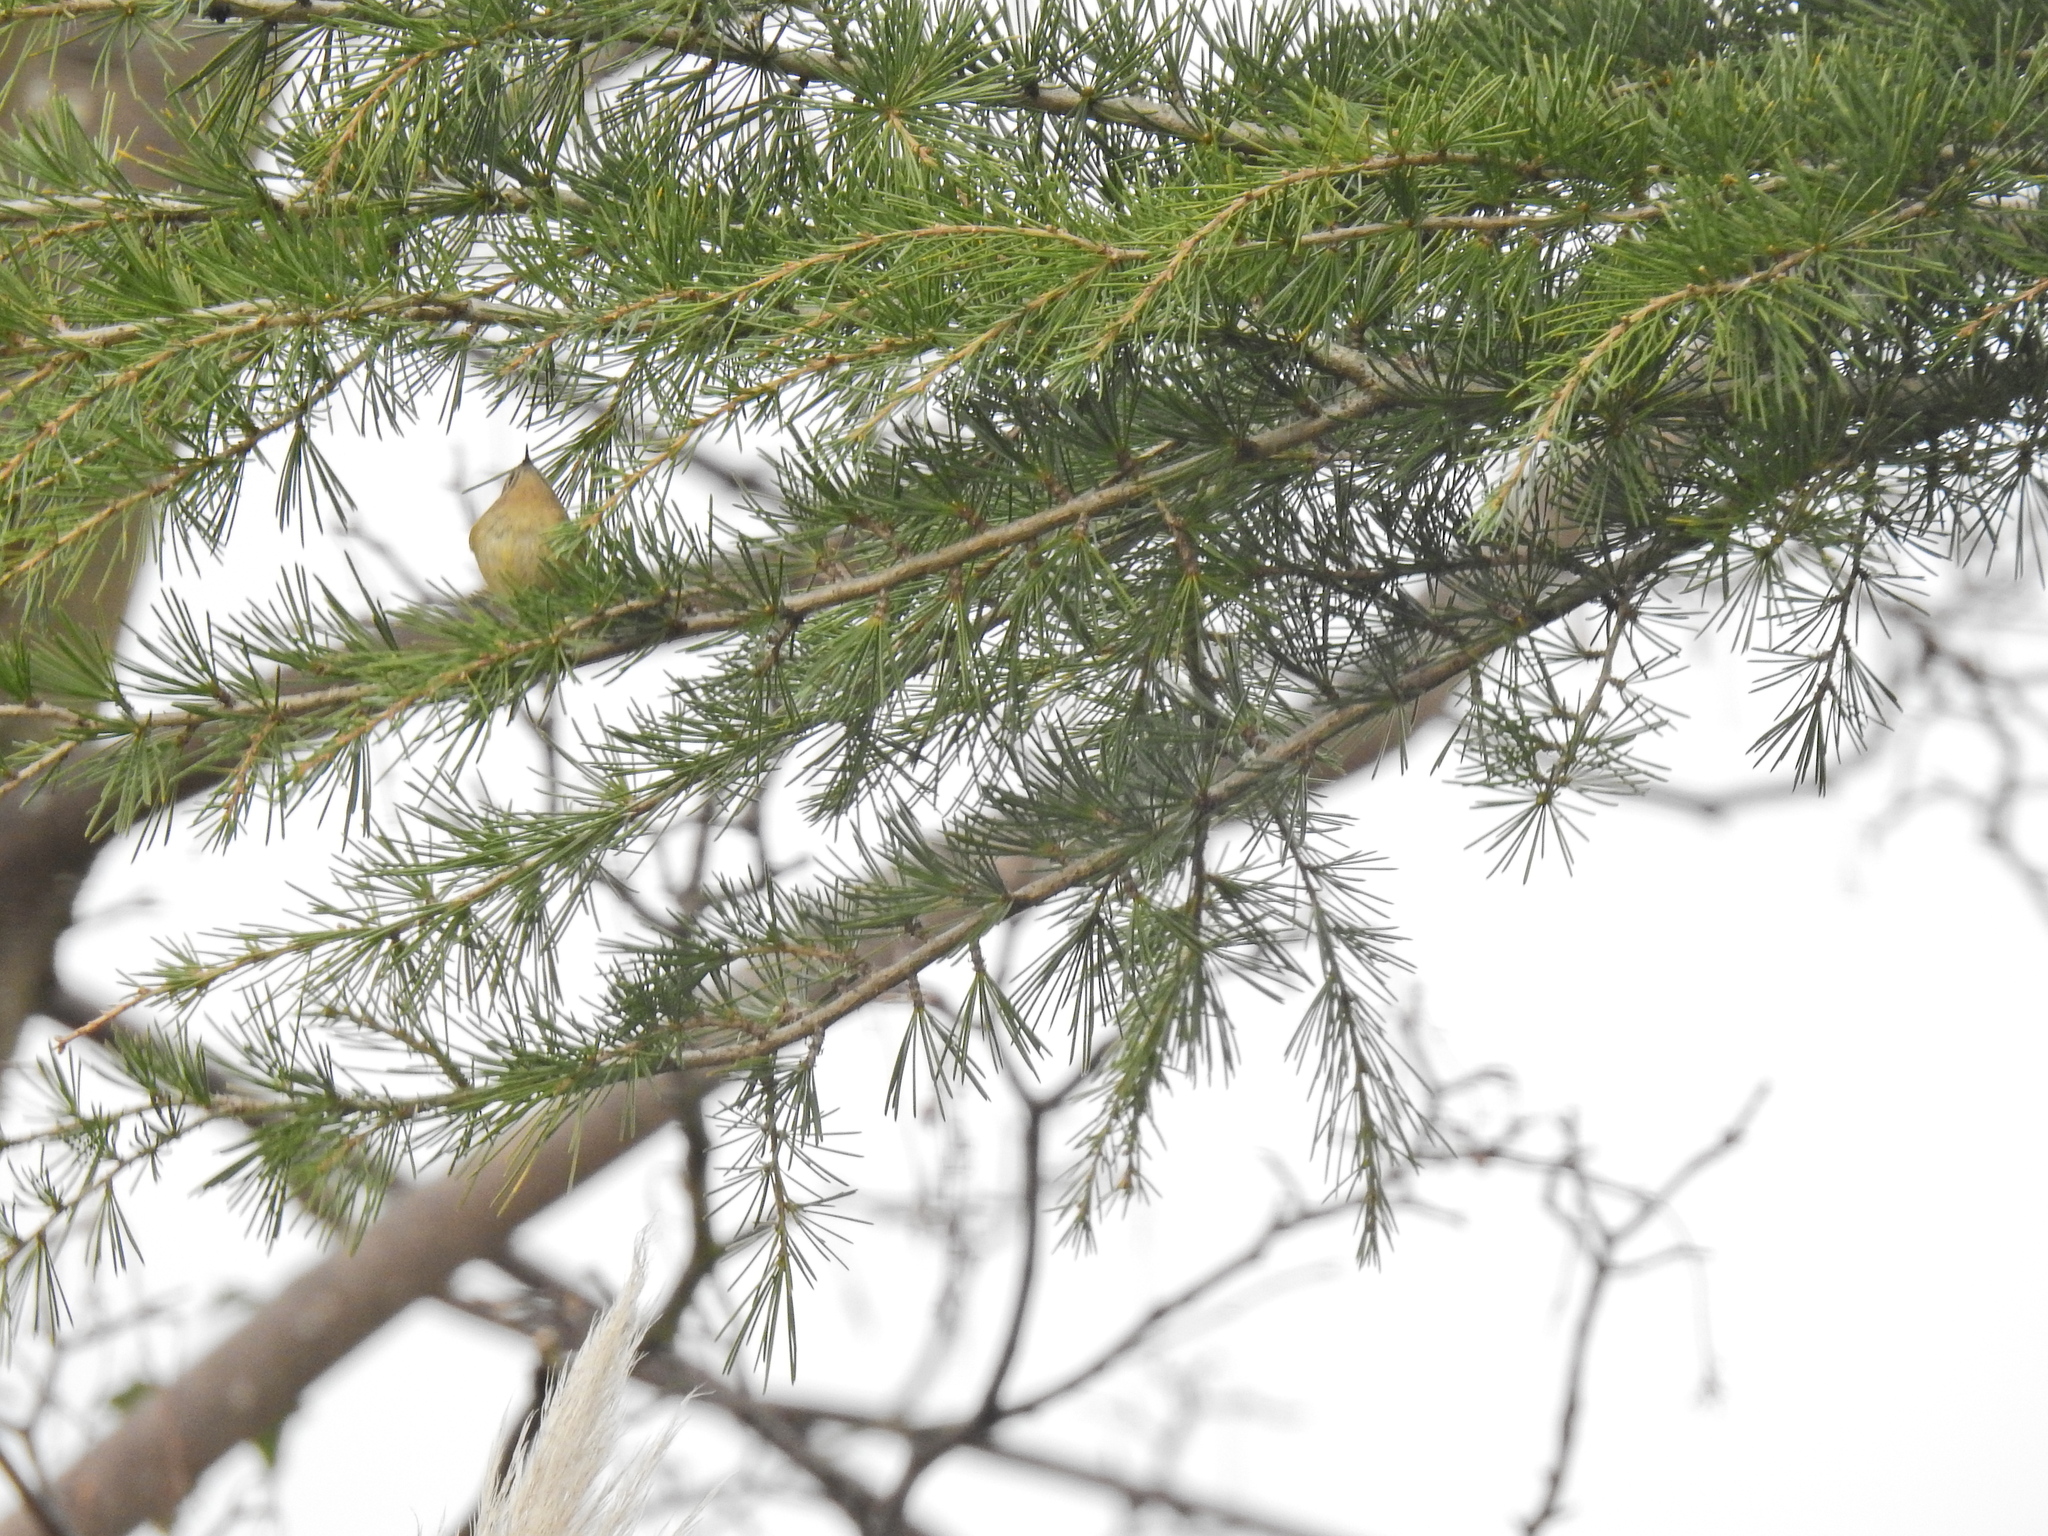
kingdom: Animalia
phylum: Chordata
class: Aves
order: Passeriformes
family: Regulidae
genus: Regulus
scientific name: Regulus regulus
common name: Goldcrest
